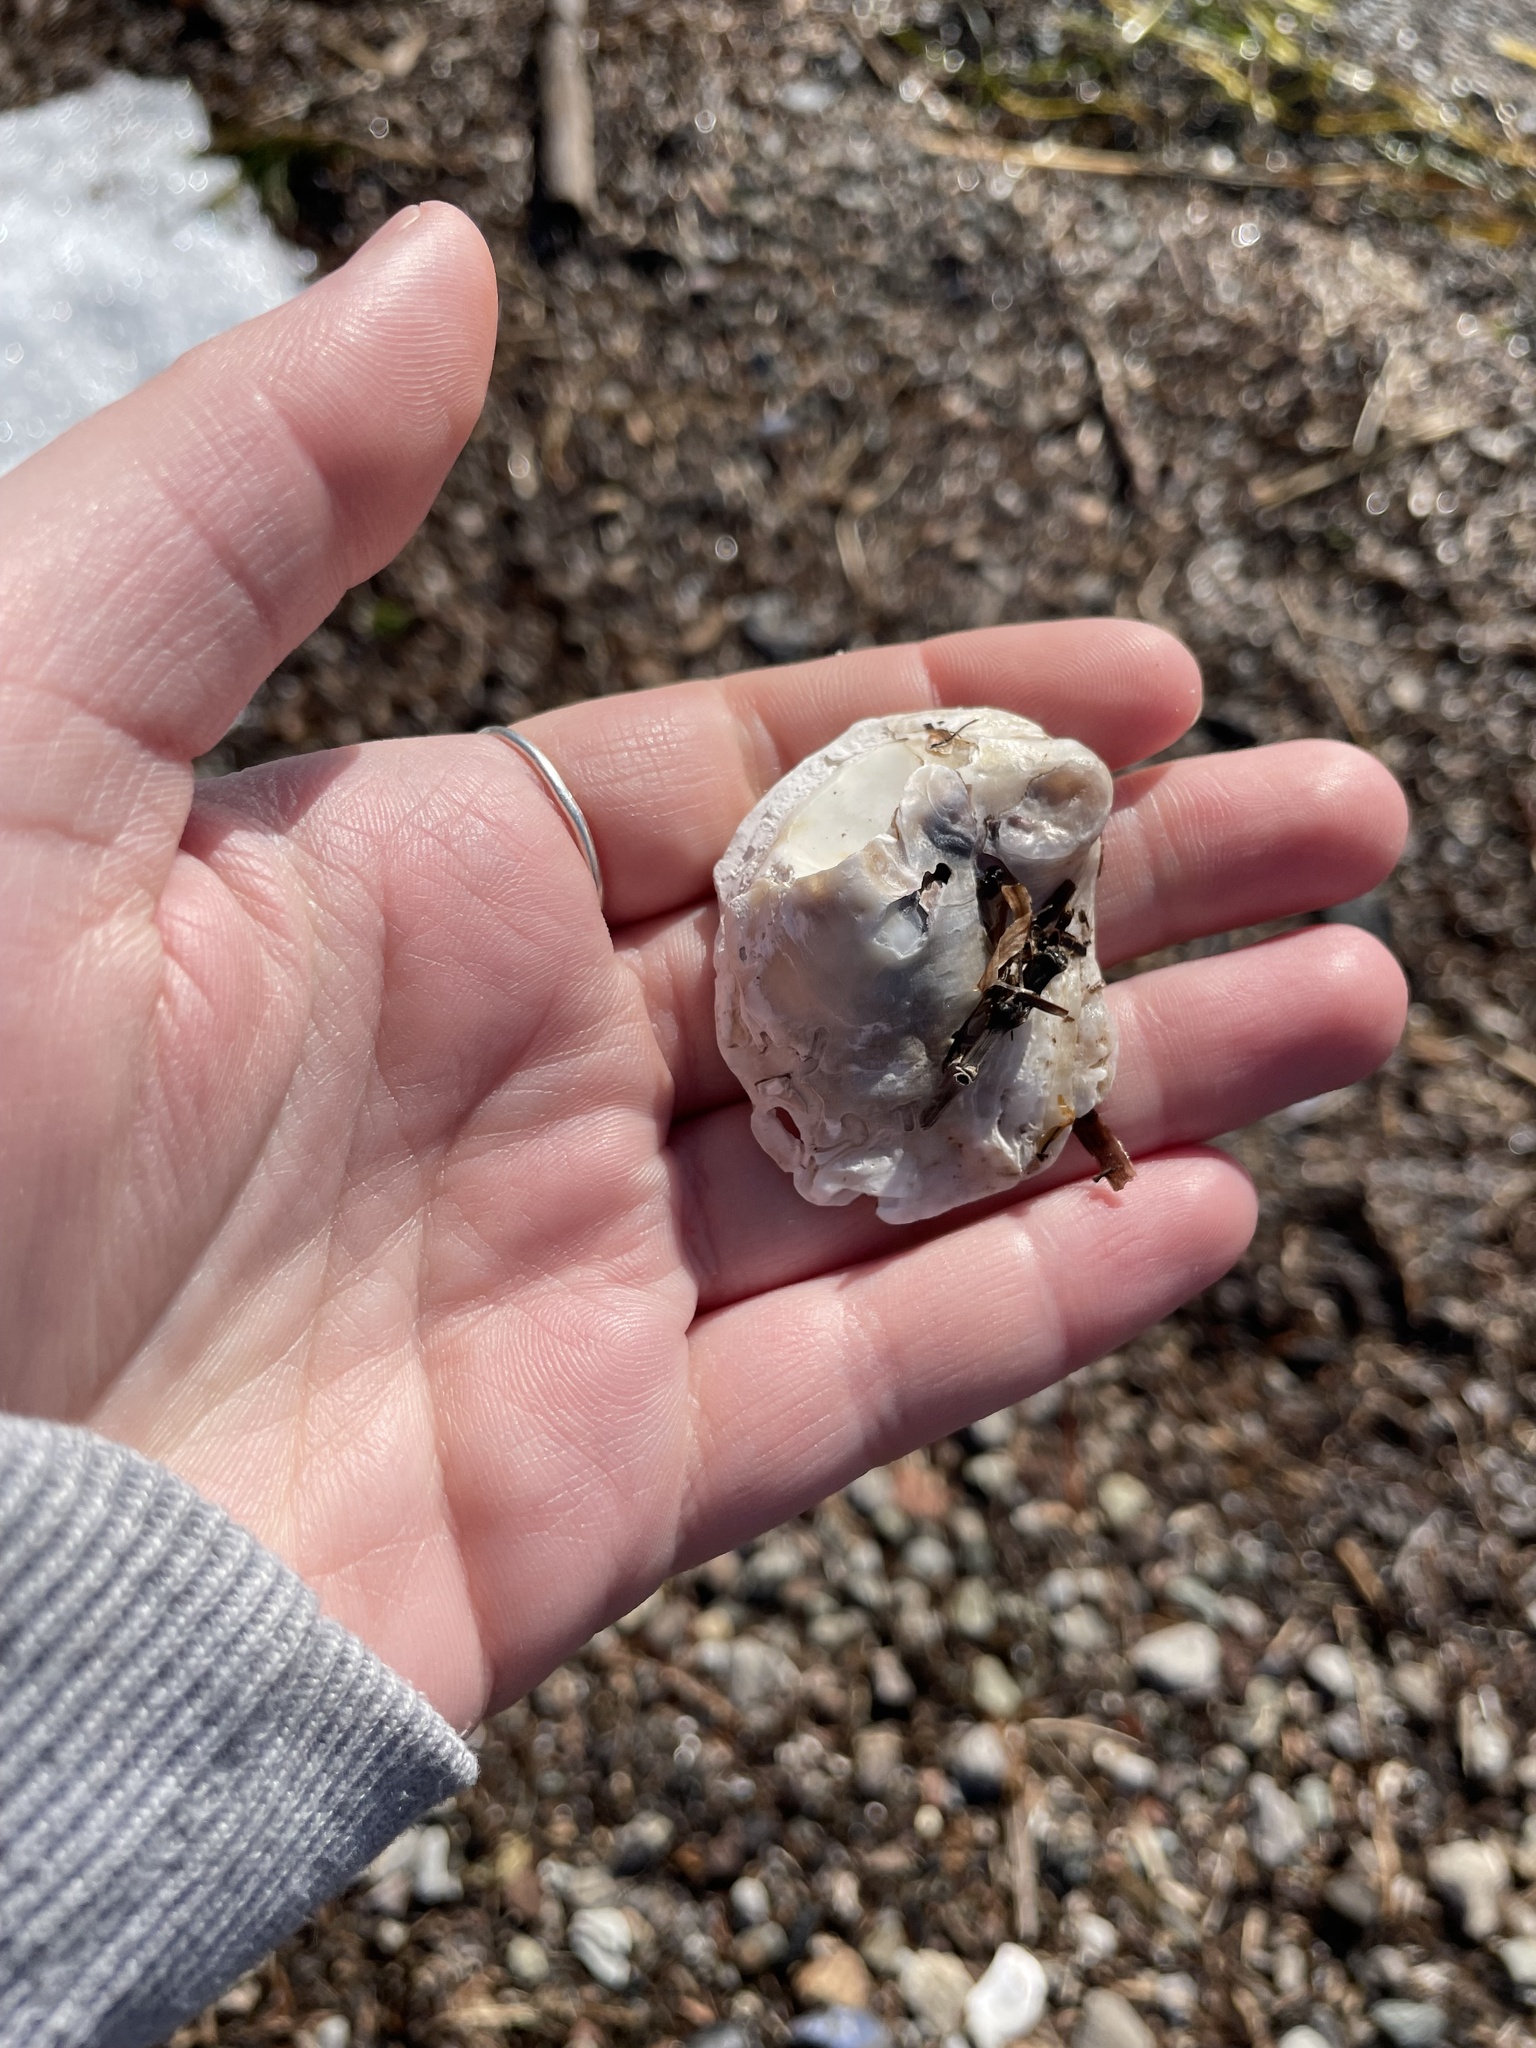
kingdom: Animalia
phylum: Mollusca
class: Bivalvia
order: Ostreida
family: Ostreidae
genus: Crassostrea
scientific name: Crassostrea virginica
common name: American oyster
